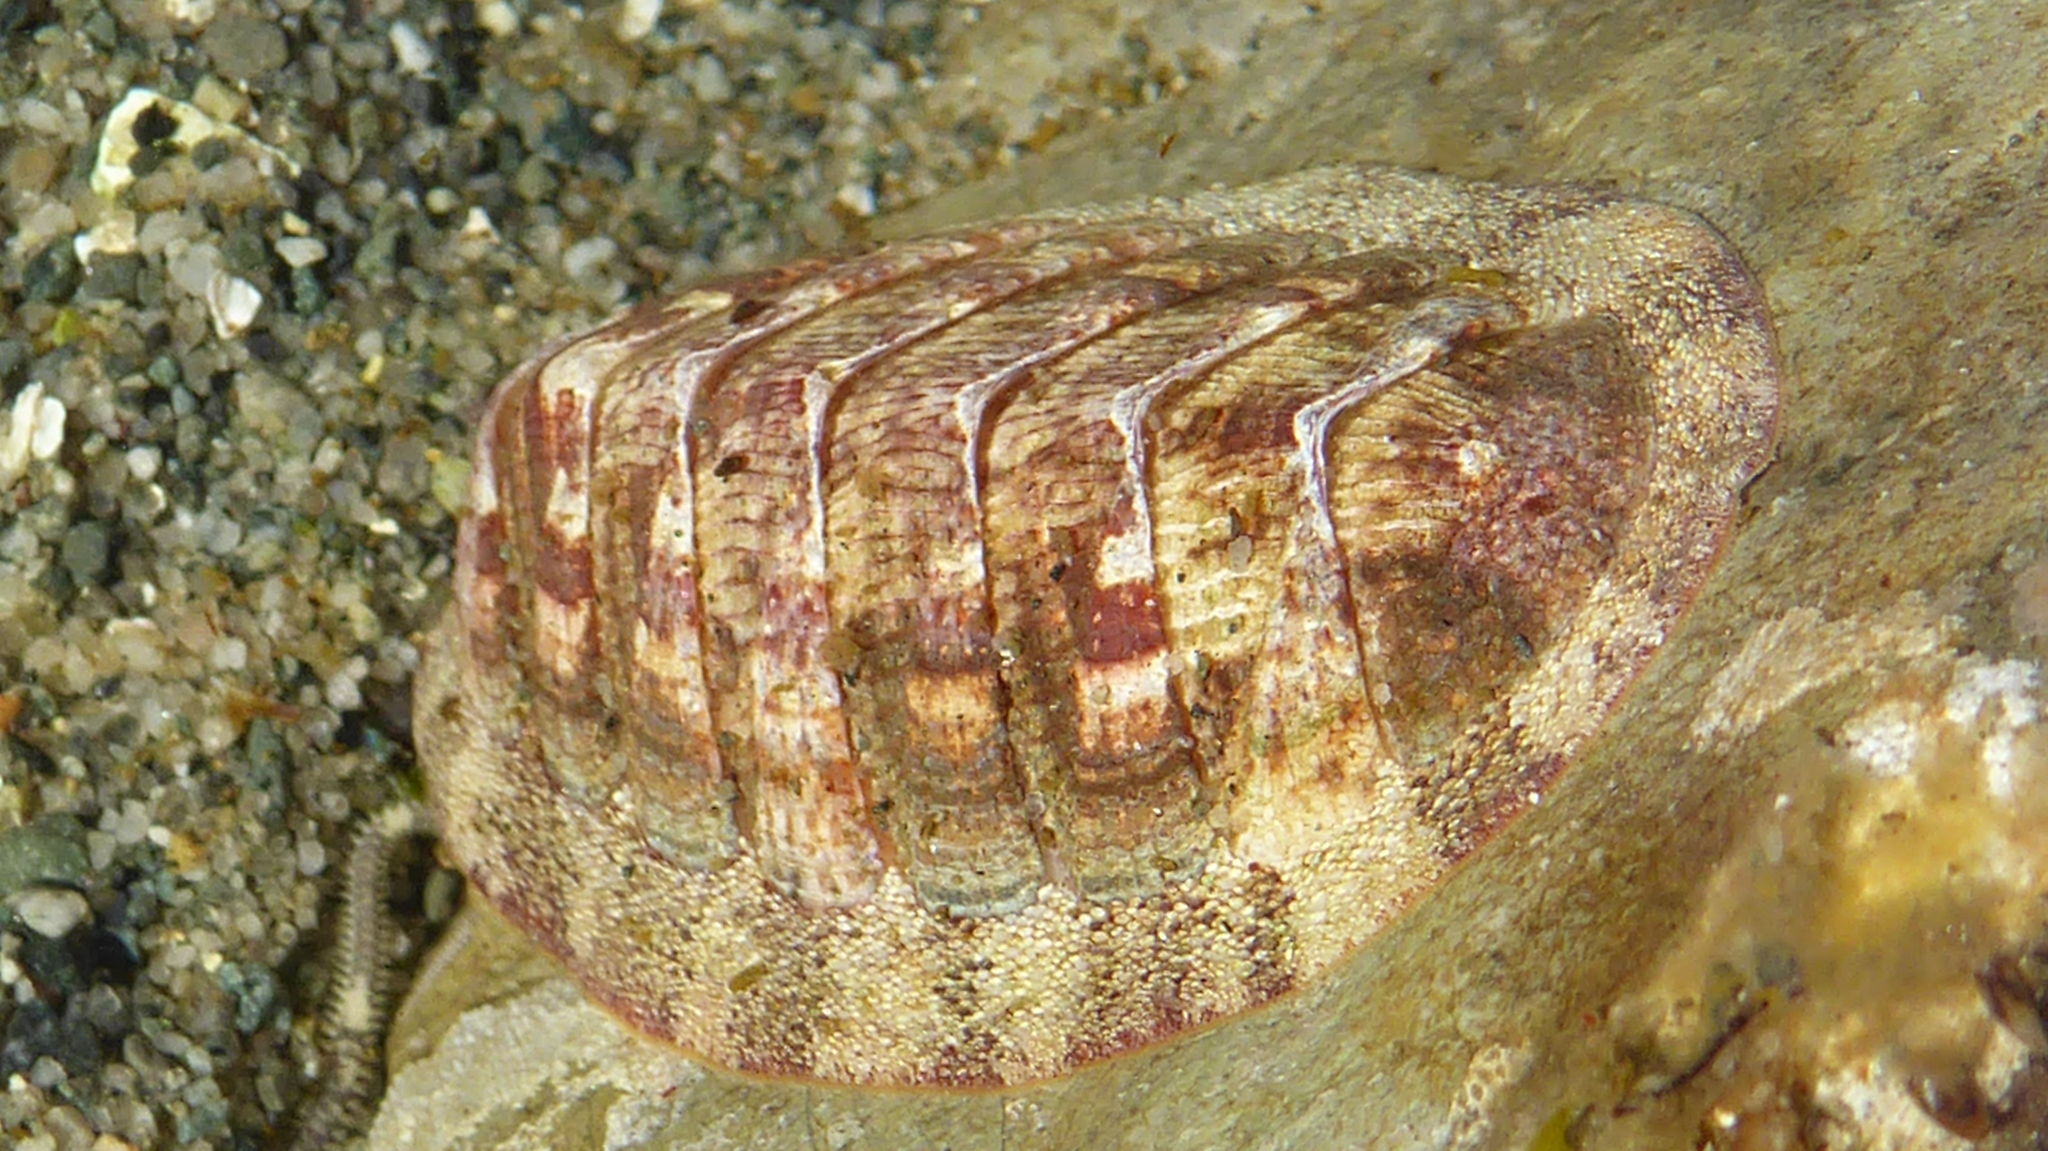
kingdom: Animalia
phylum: Mollusca
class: Polyplacophora
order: Chitonida
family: Ischnochitonidae
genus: Lepidozona
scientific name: Lepidozona mertensii
